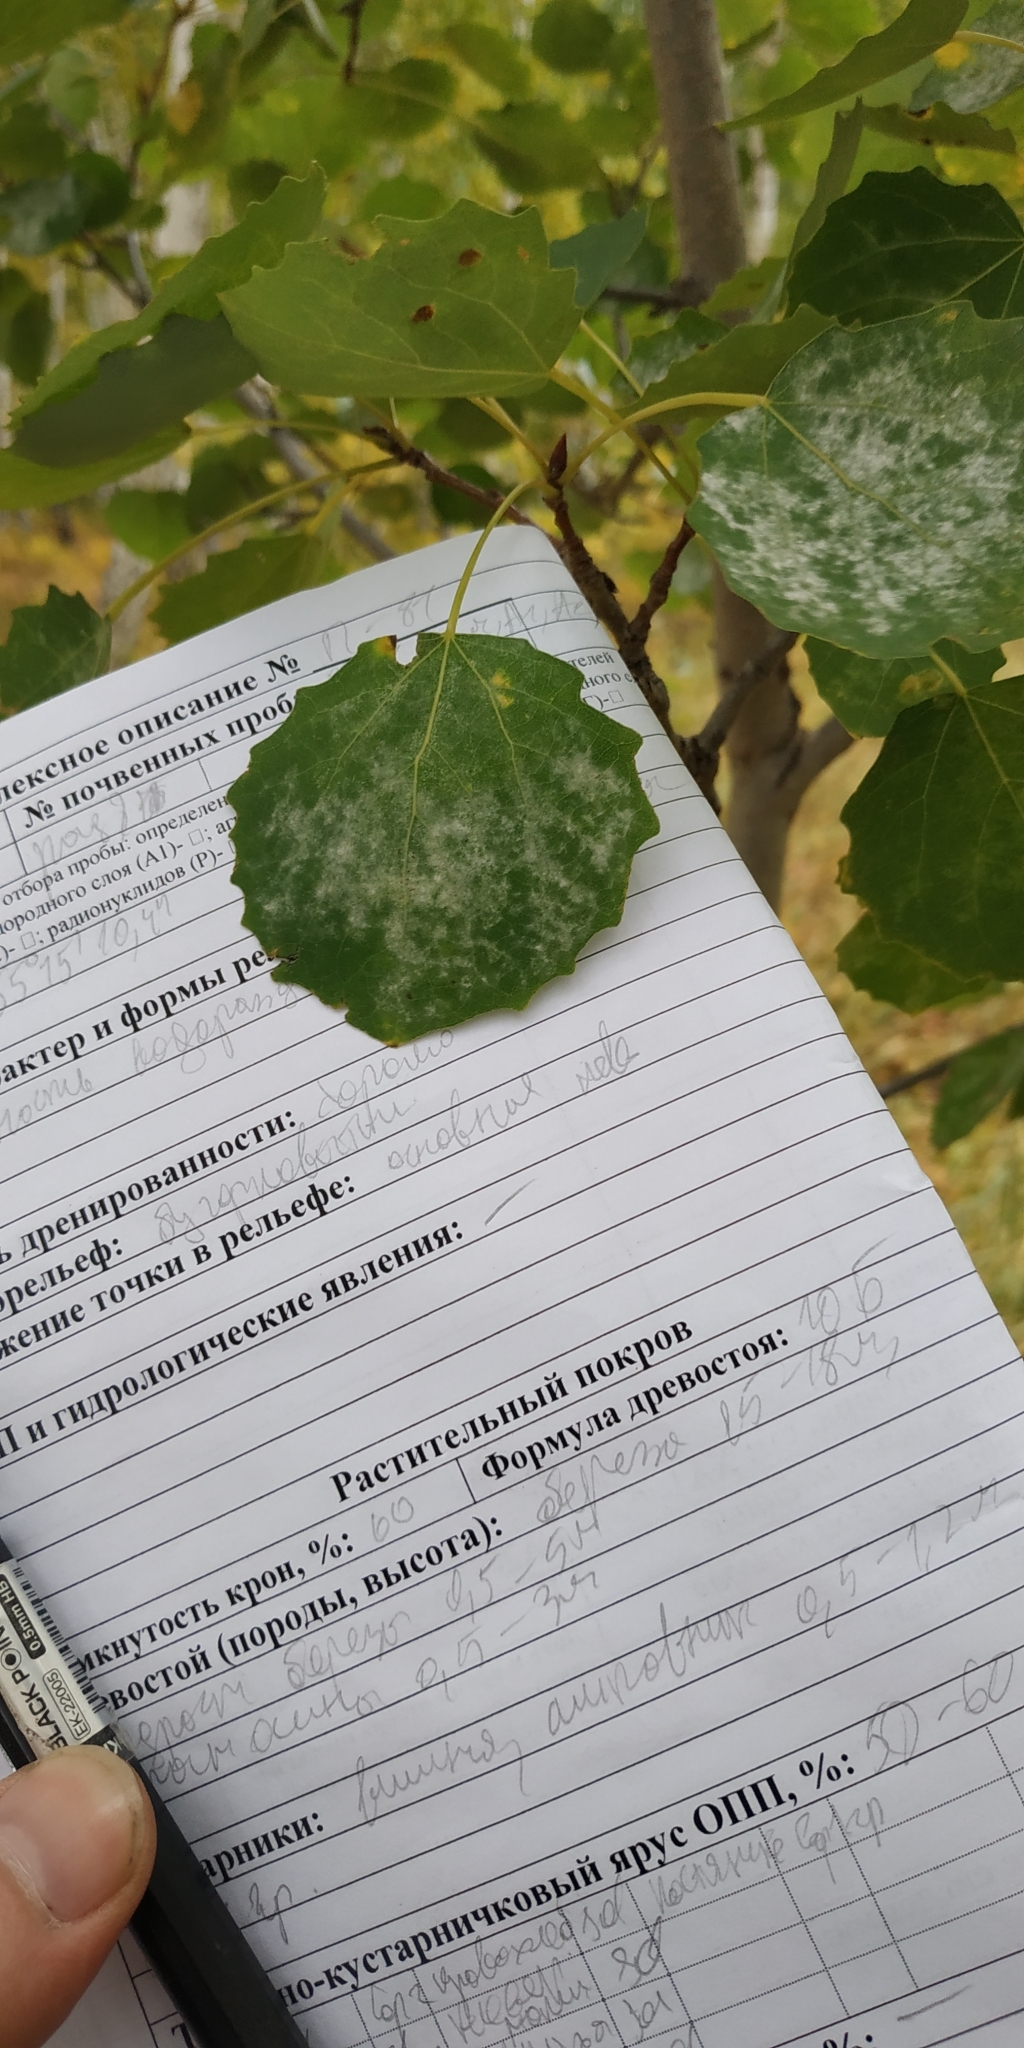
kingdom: Plantae
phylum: Tracheophyta
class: Magnoliopsida
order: Malpighiales
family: Salicaceae
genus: Populus
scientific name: Populus tremula
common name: European aspen
